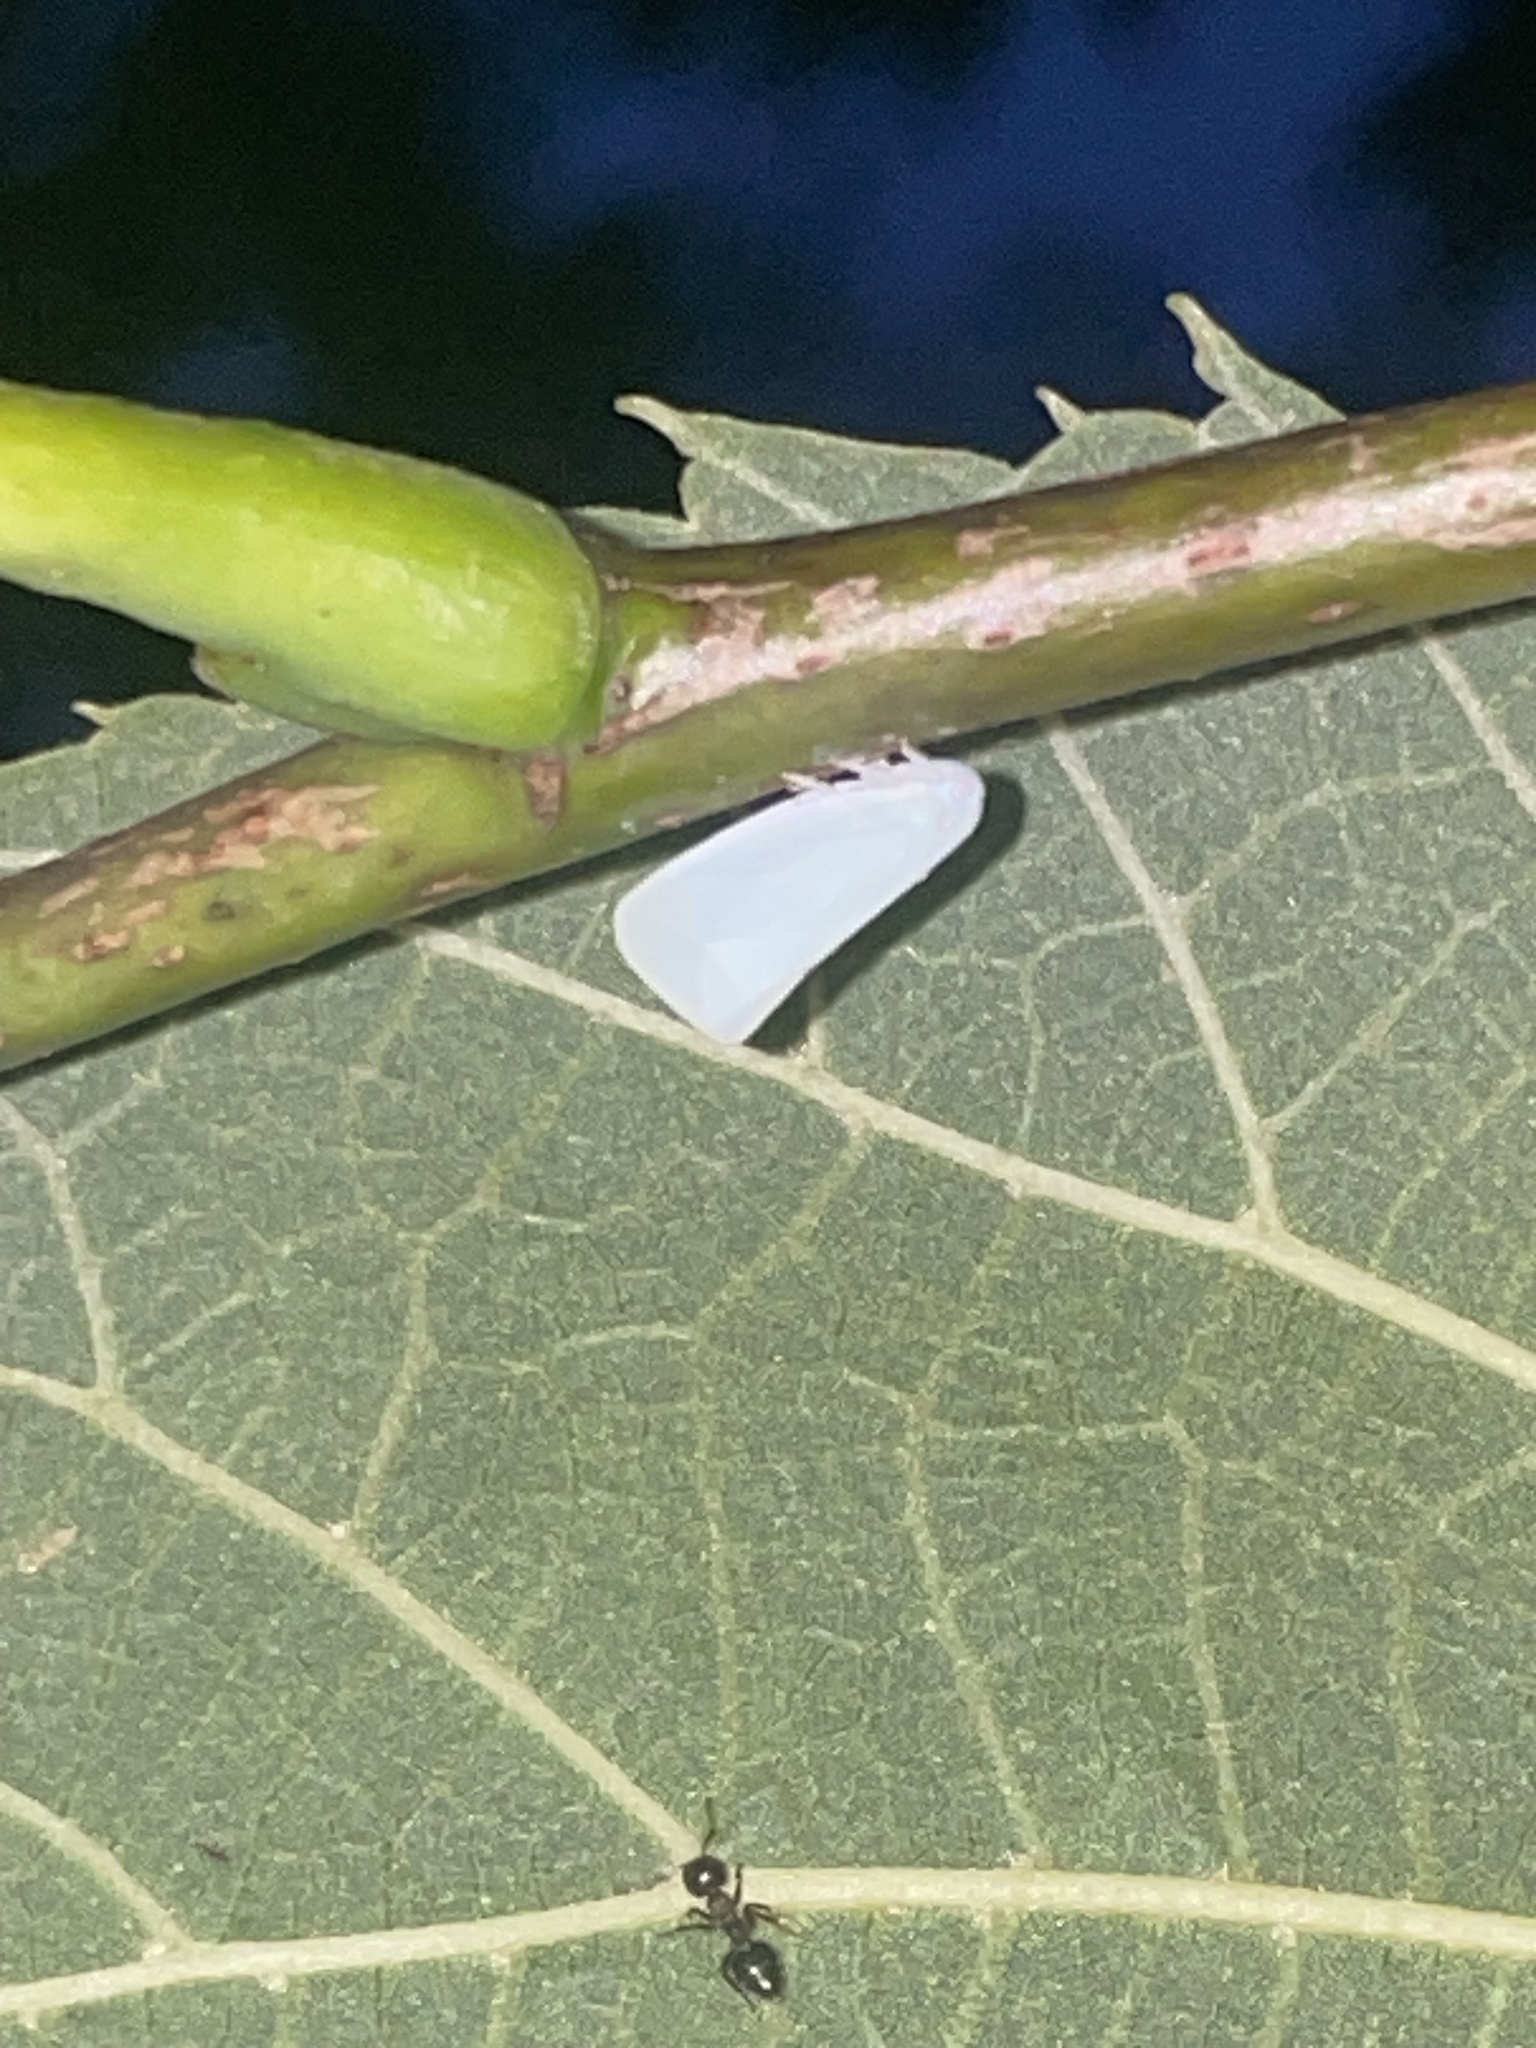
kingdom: Animalia
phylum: Arthropoda
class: Insecta
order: Hemiptera
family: Flatidae
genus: Flatormenis
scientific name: Flatormenis proxima
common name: Northern flatid planthopper
